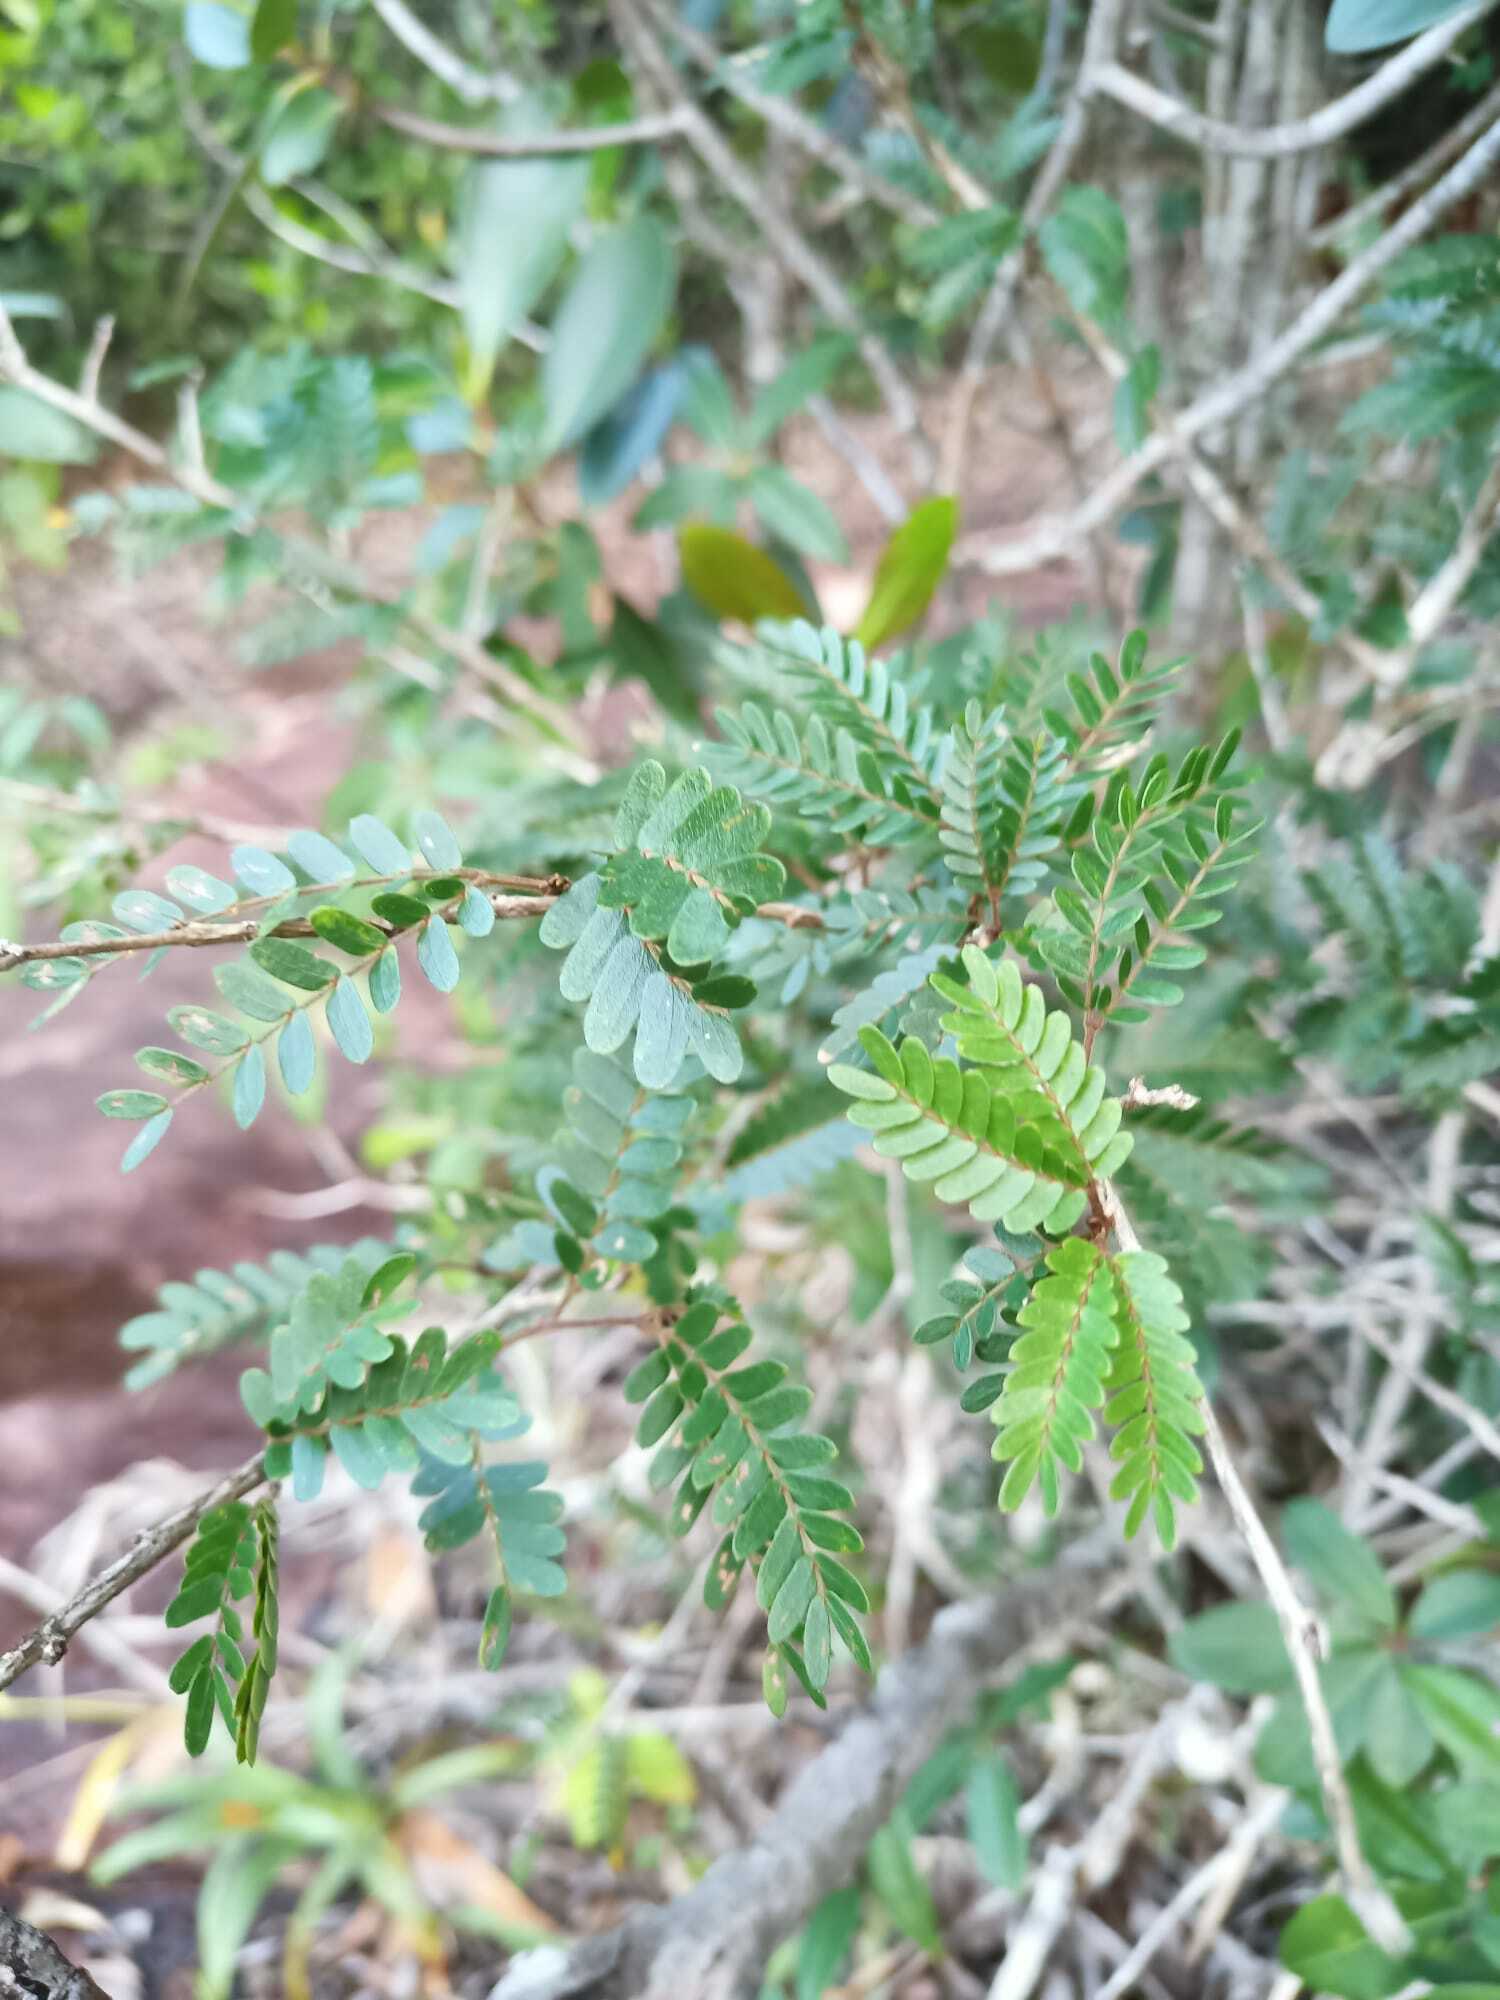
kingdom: Plantae
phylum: Tracheophyta
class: Magnoliopsida
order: Fabales
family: Fabaceae
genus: Calliandra
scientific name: Calliandra surinamensis
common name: Pink powder puff
